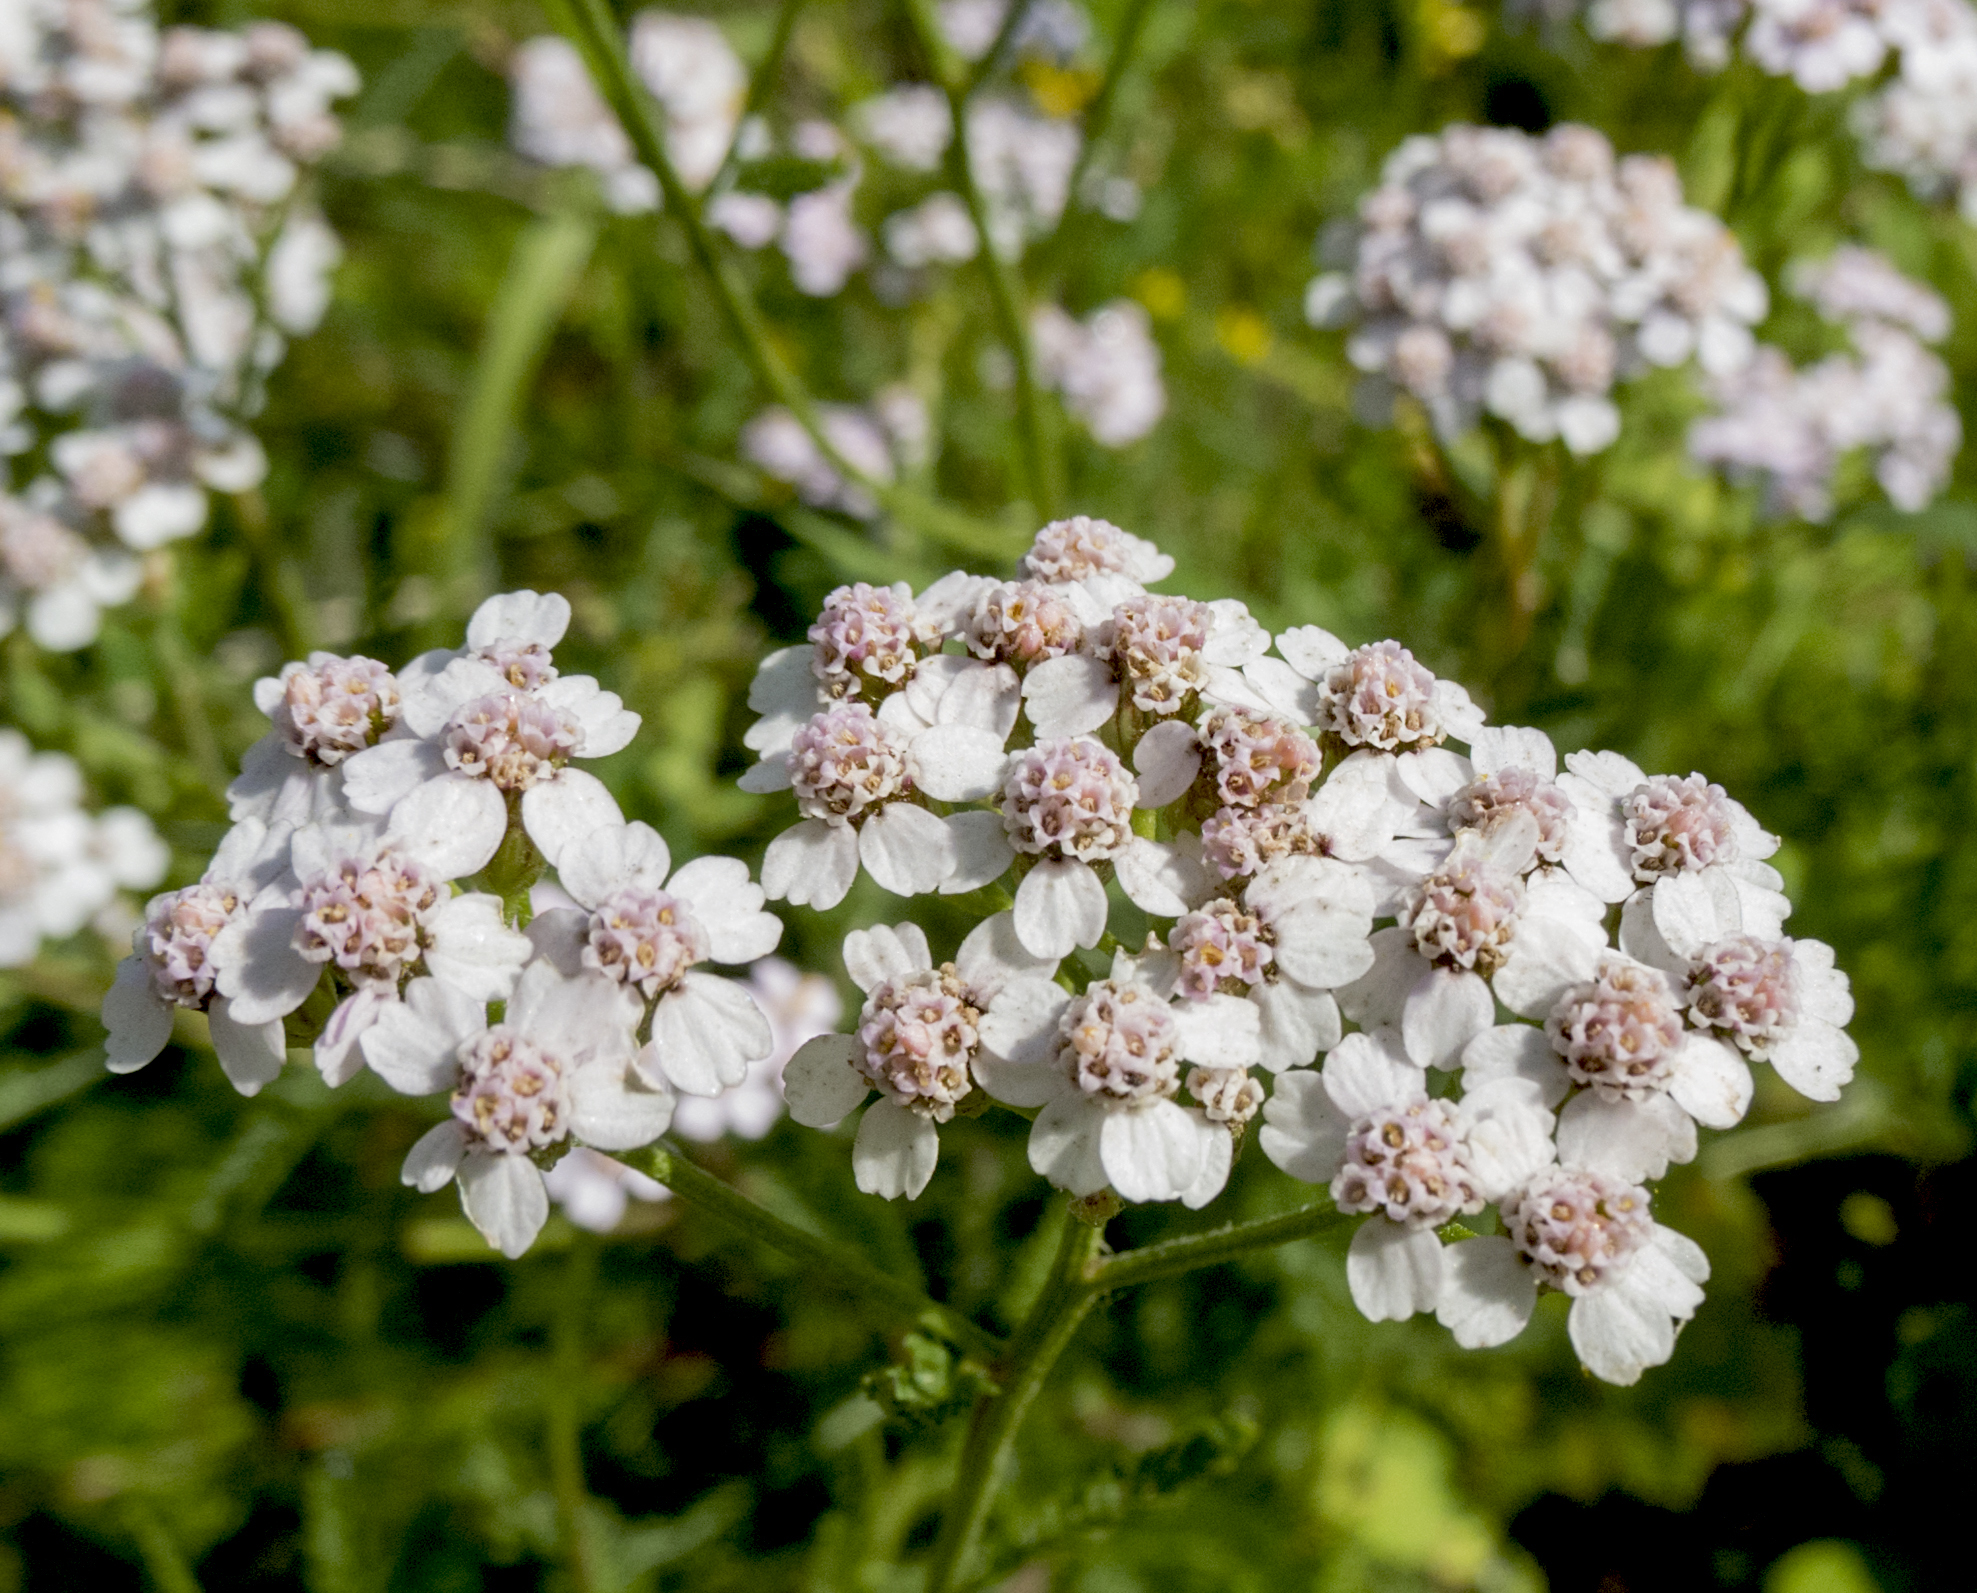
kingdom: Plantae
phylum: Tracheophyta
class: Magnoliopsida
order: Asterales
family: Asteraceae
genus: Achillea
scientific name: Achillea millefolium
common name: Yarrow
